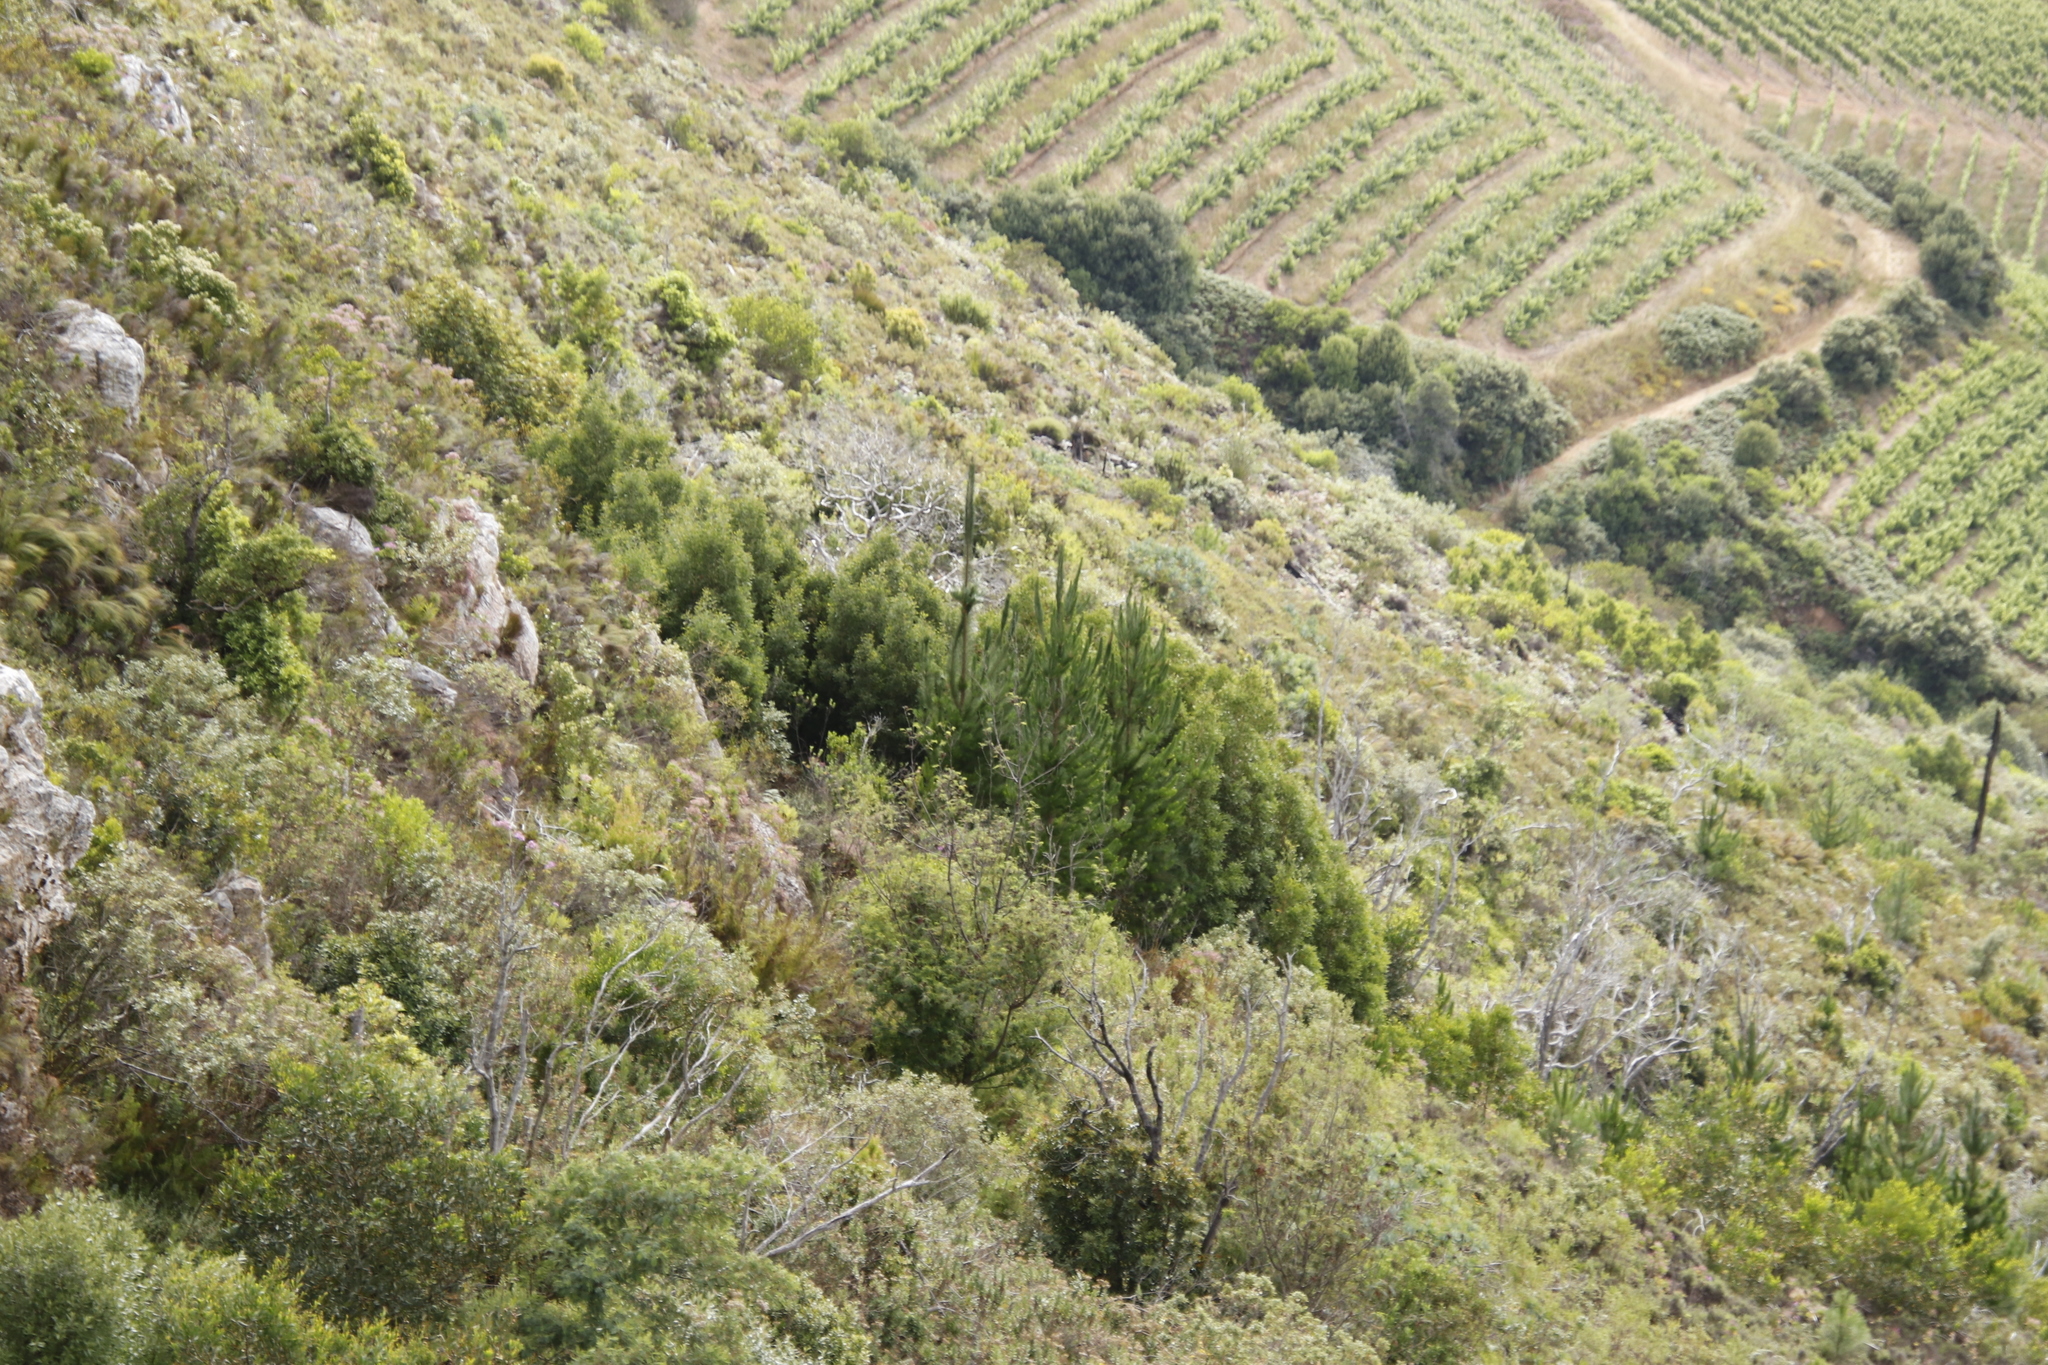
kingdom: Plantae
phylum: Tracheophyta
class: Pinopsida
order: Pinales
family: Pinaceae
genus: Pinus
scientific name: Pinus radiata
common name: Monterey pine
